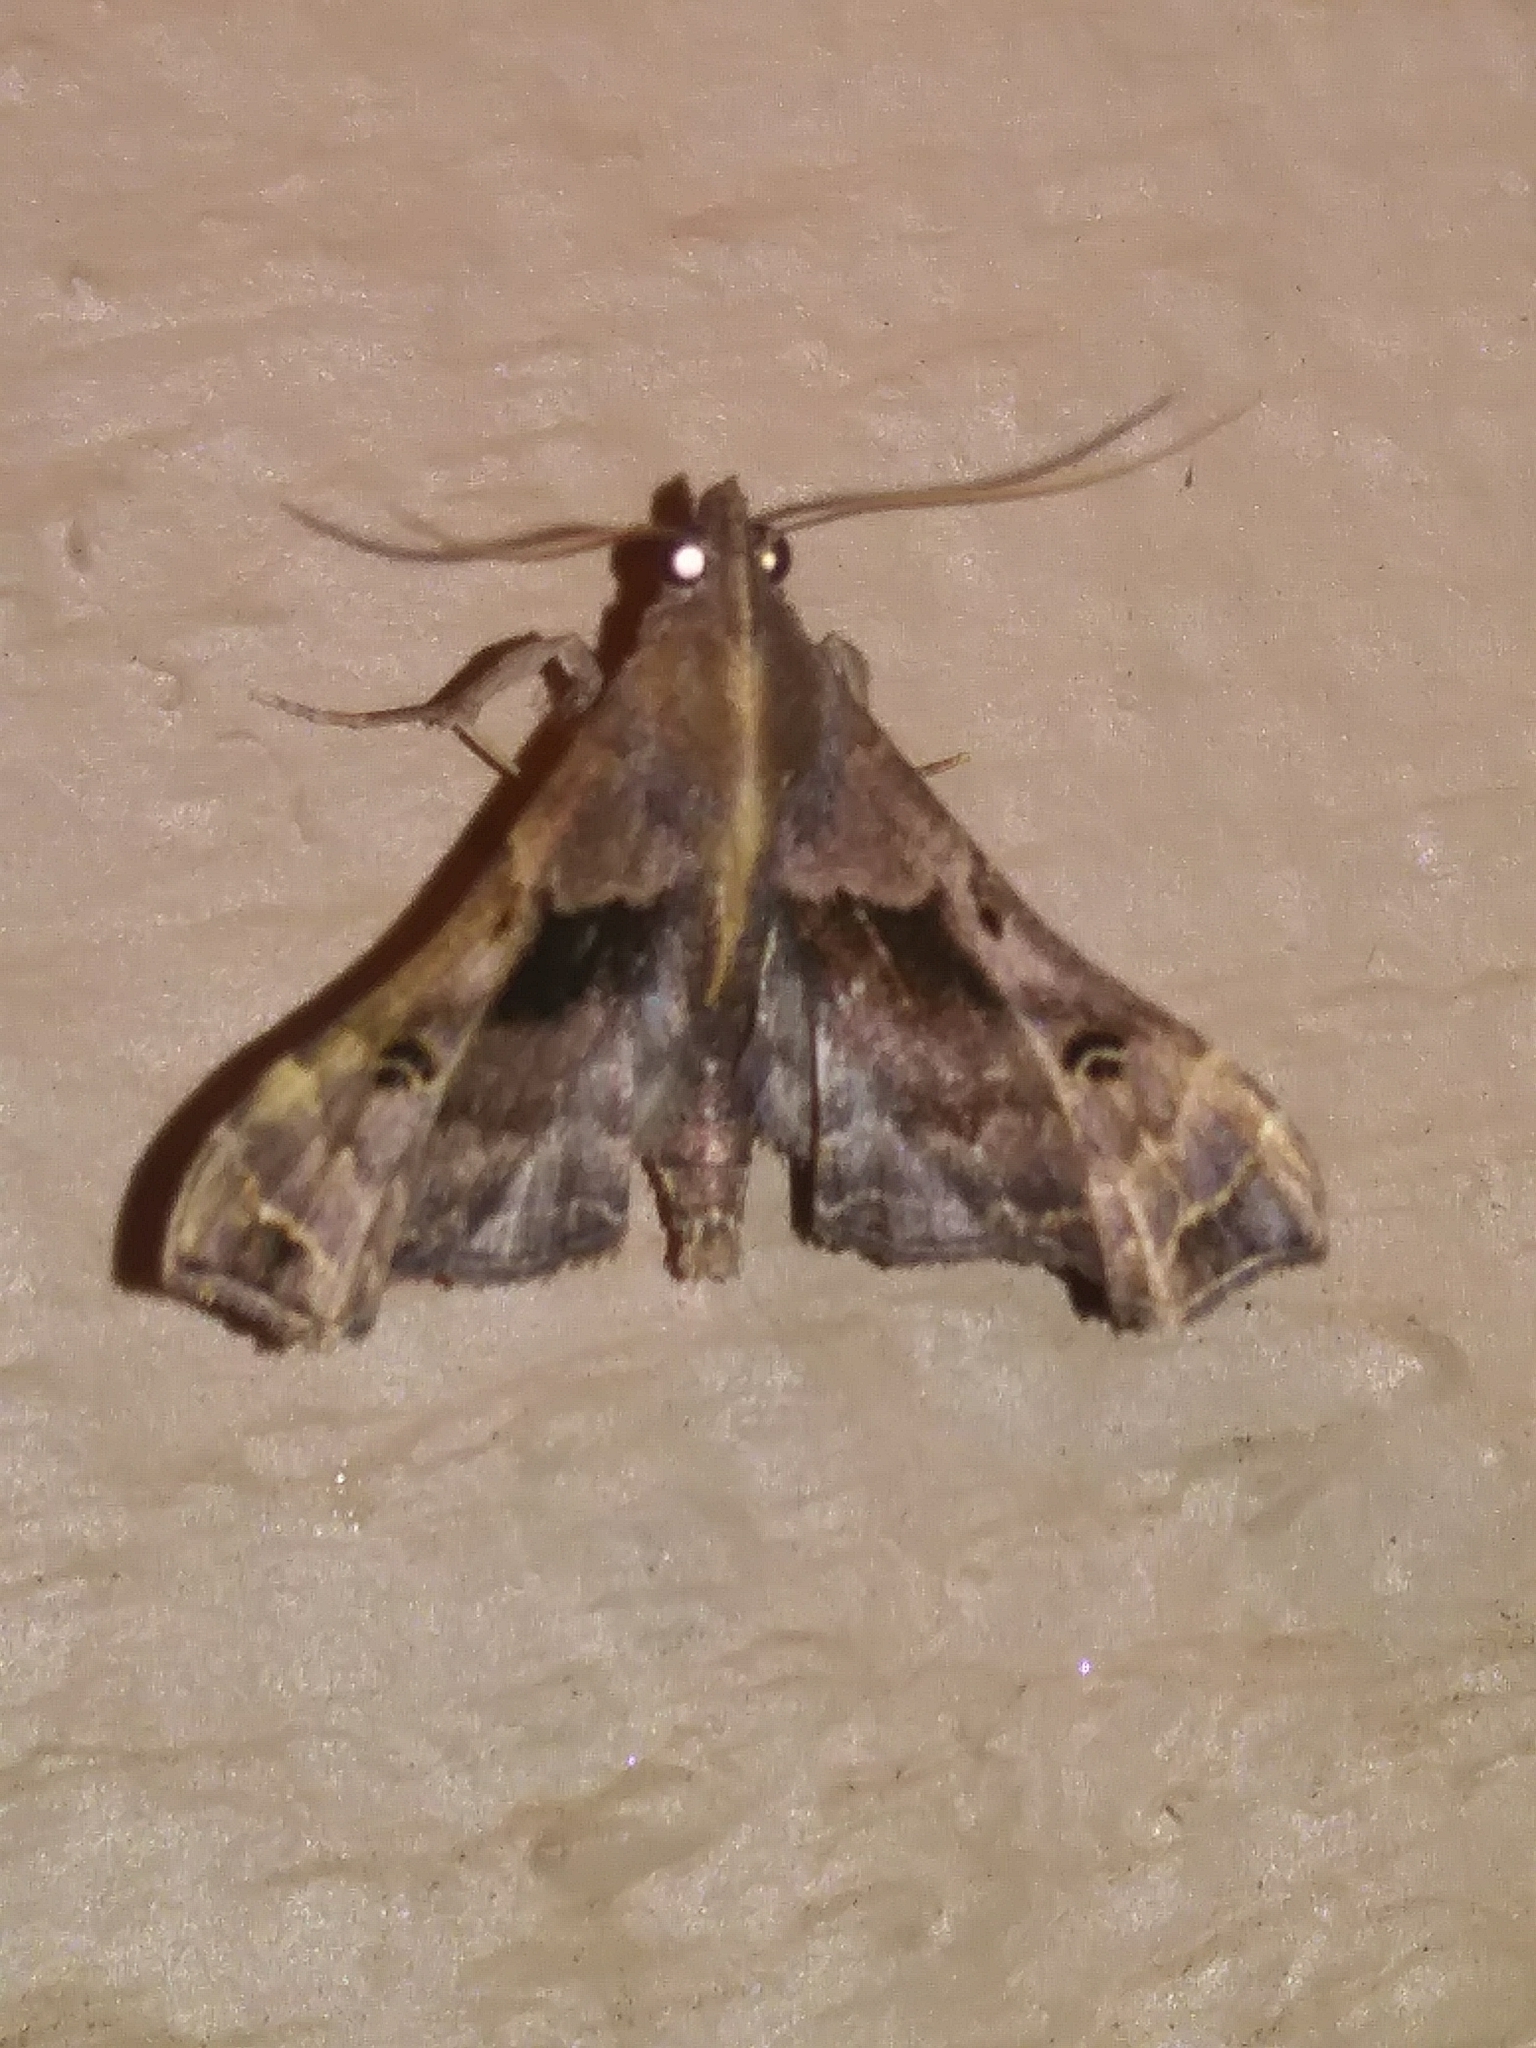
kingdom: Animalia
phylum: Arthropoda
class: Insecta
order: Lepidoptera
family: Erebidae
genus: Palthis
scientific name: Palthis asopialis
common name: Faint-spotted palthis moth
